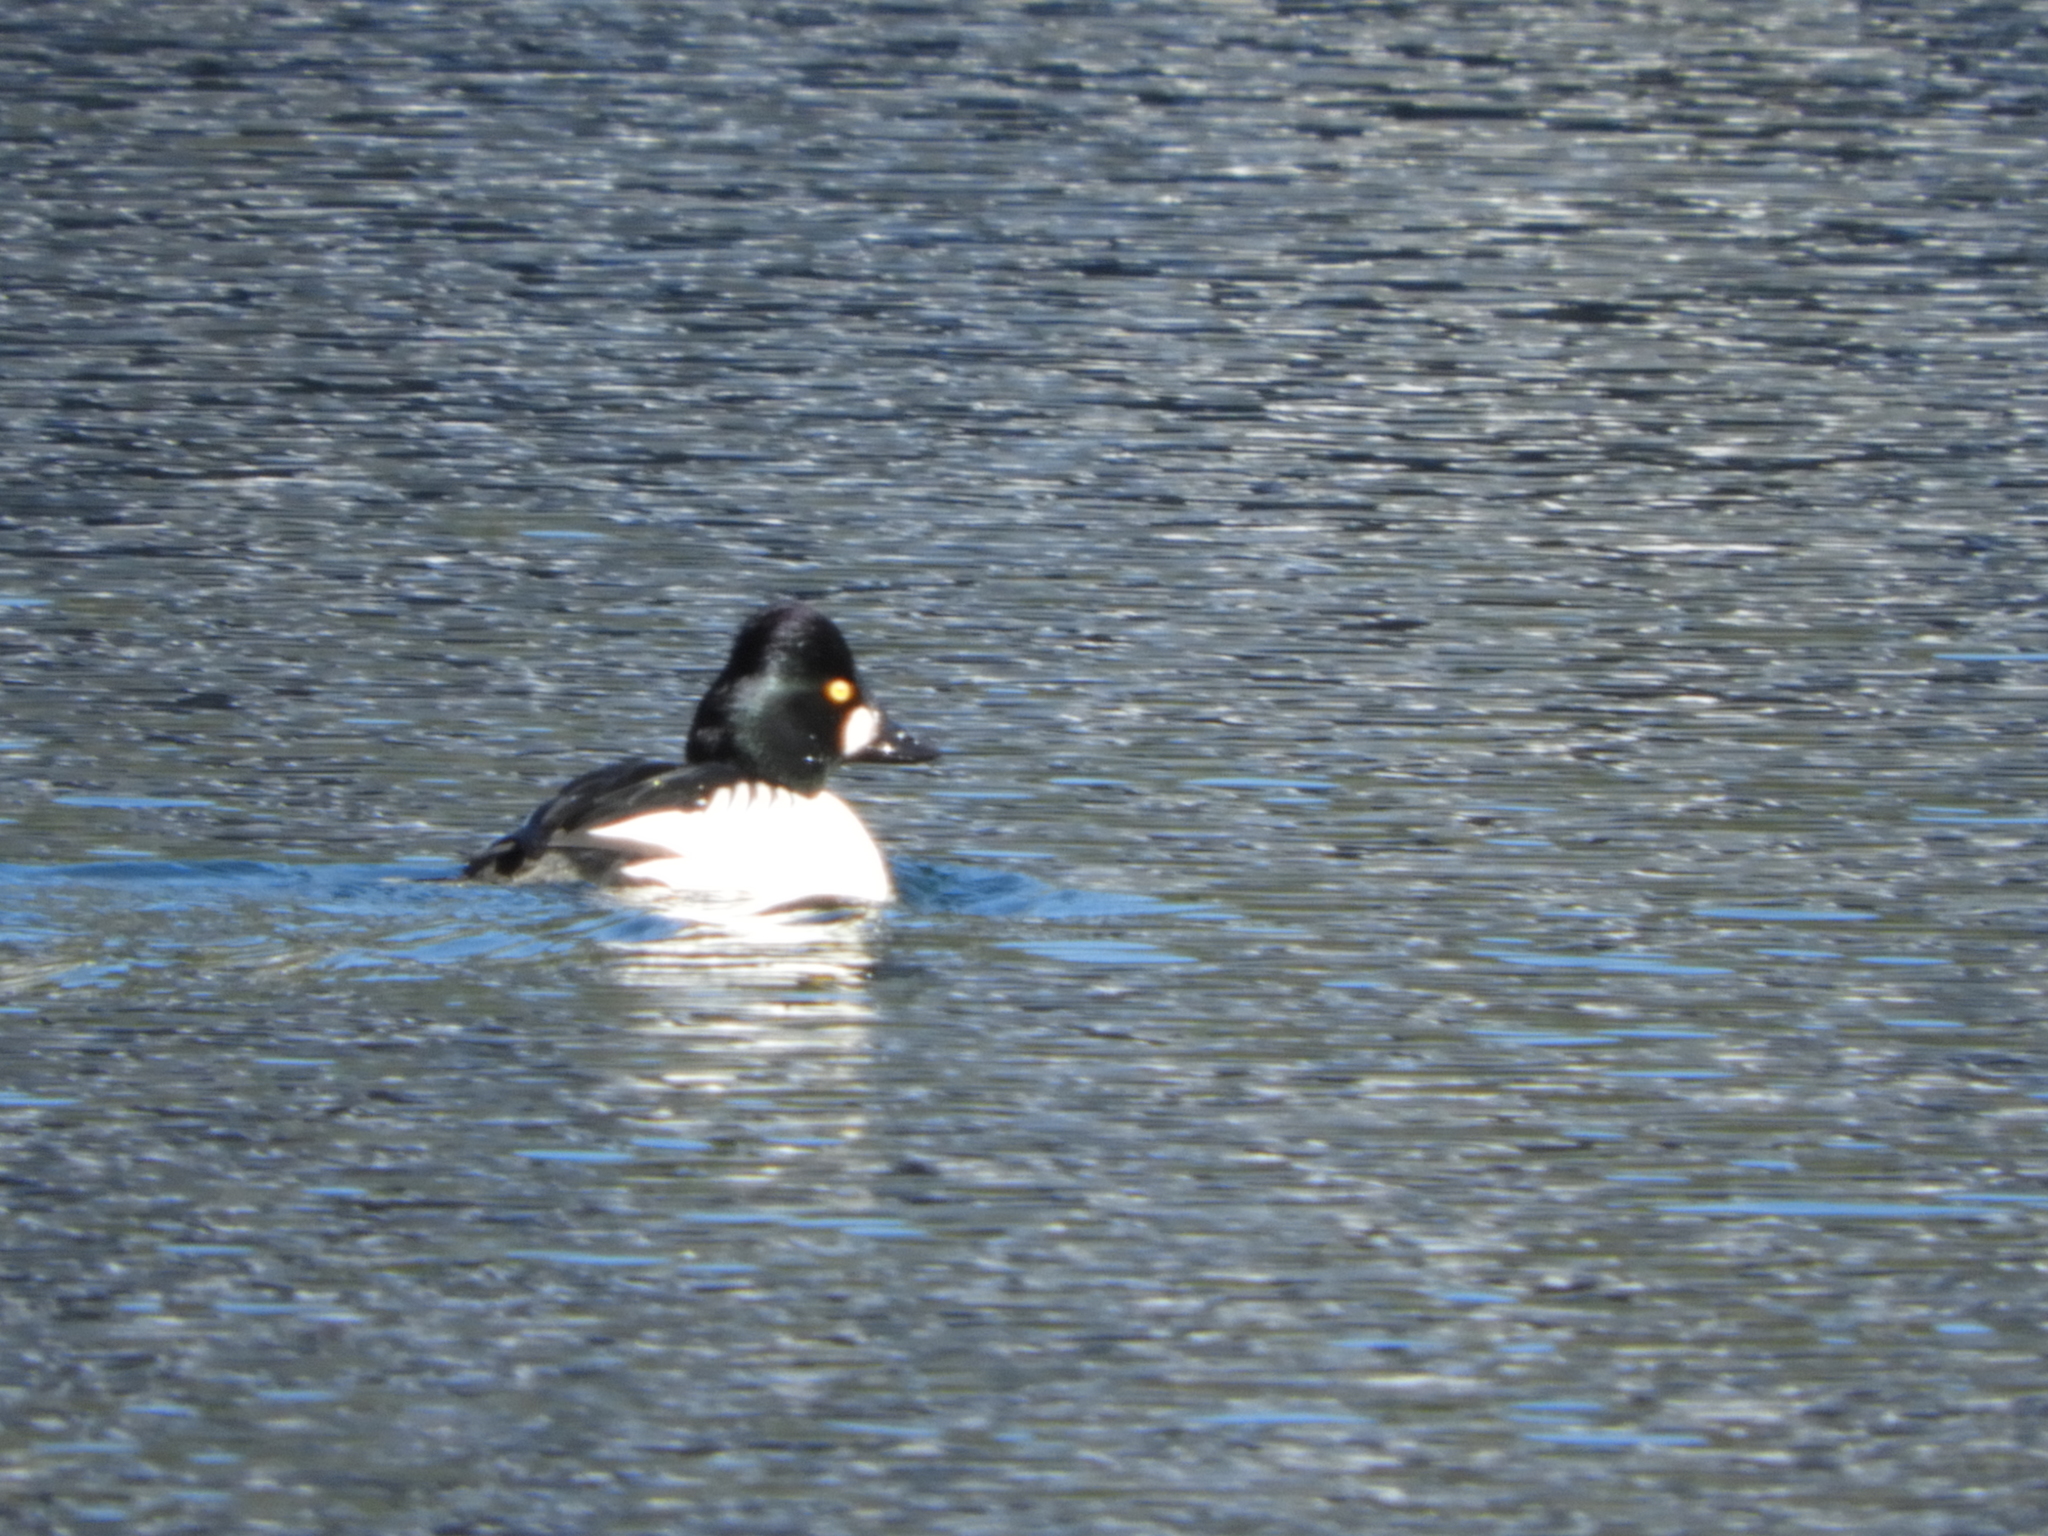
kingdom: Animalia
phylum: Chordata
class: Aves
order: Anseriformes
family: Anatidae
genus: Bucephala
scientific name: Bucephala clangula
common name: Common goldeneye
